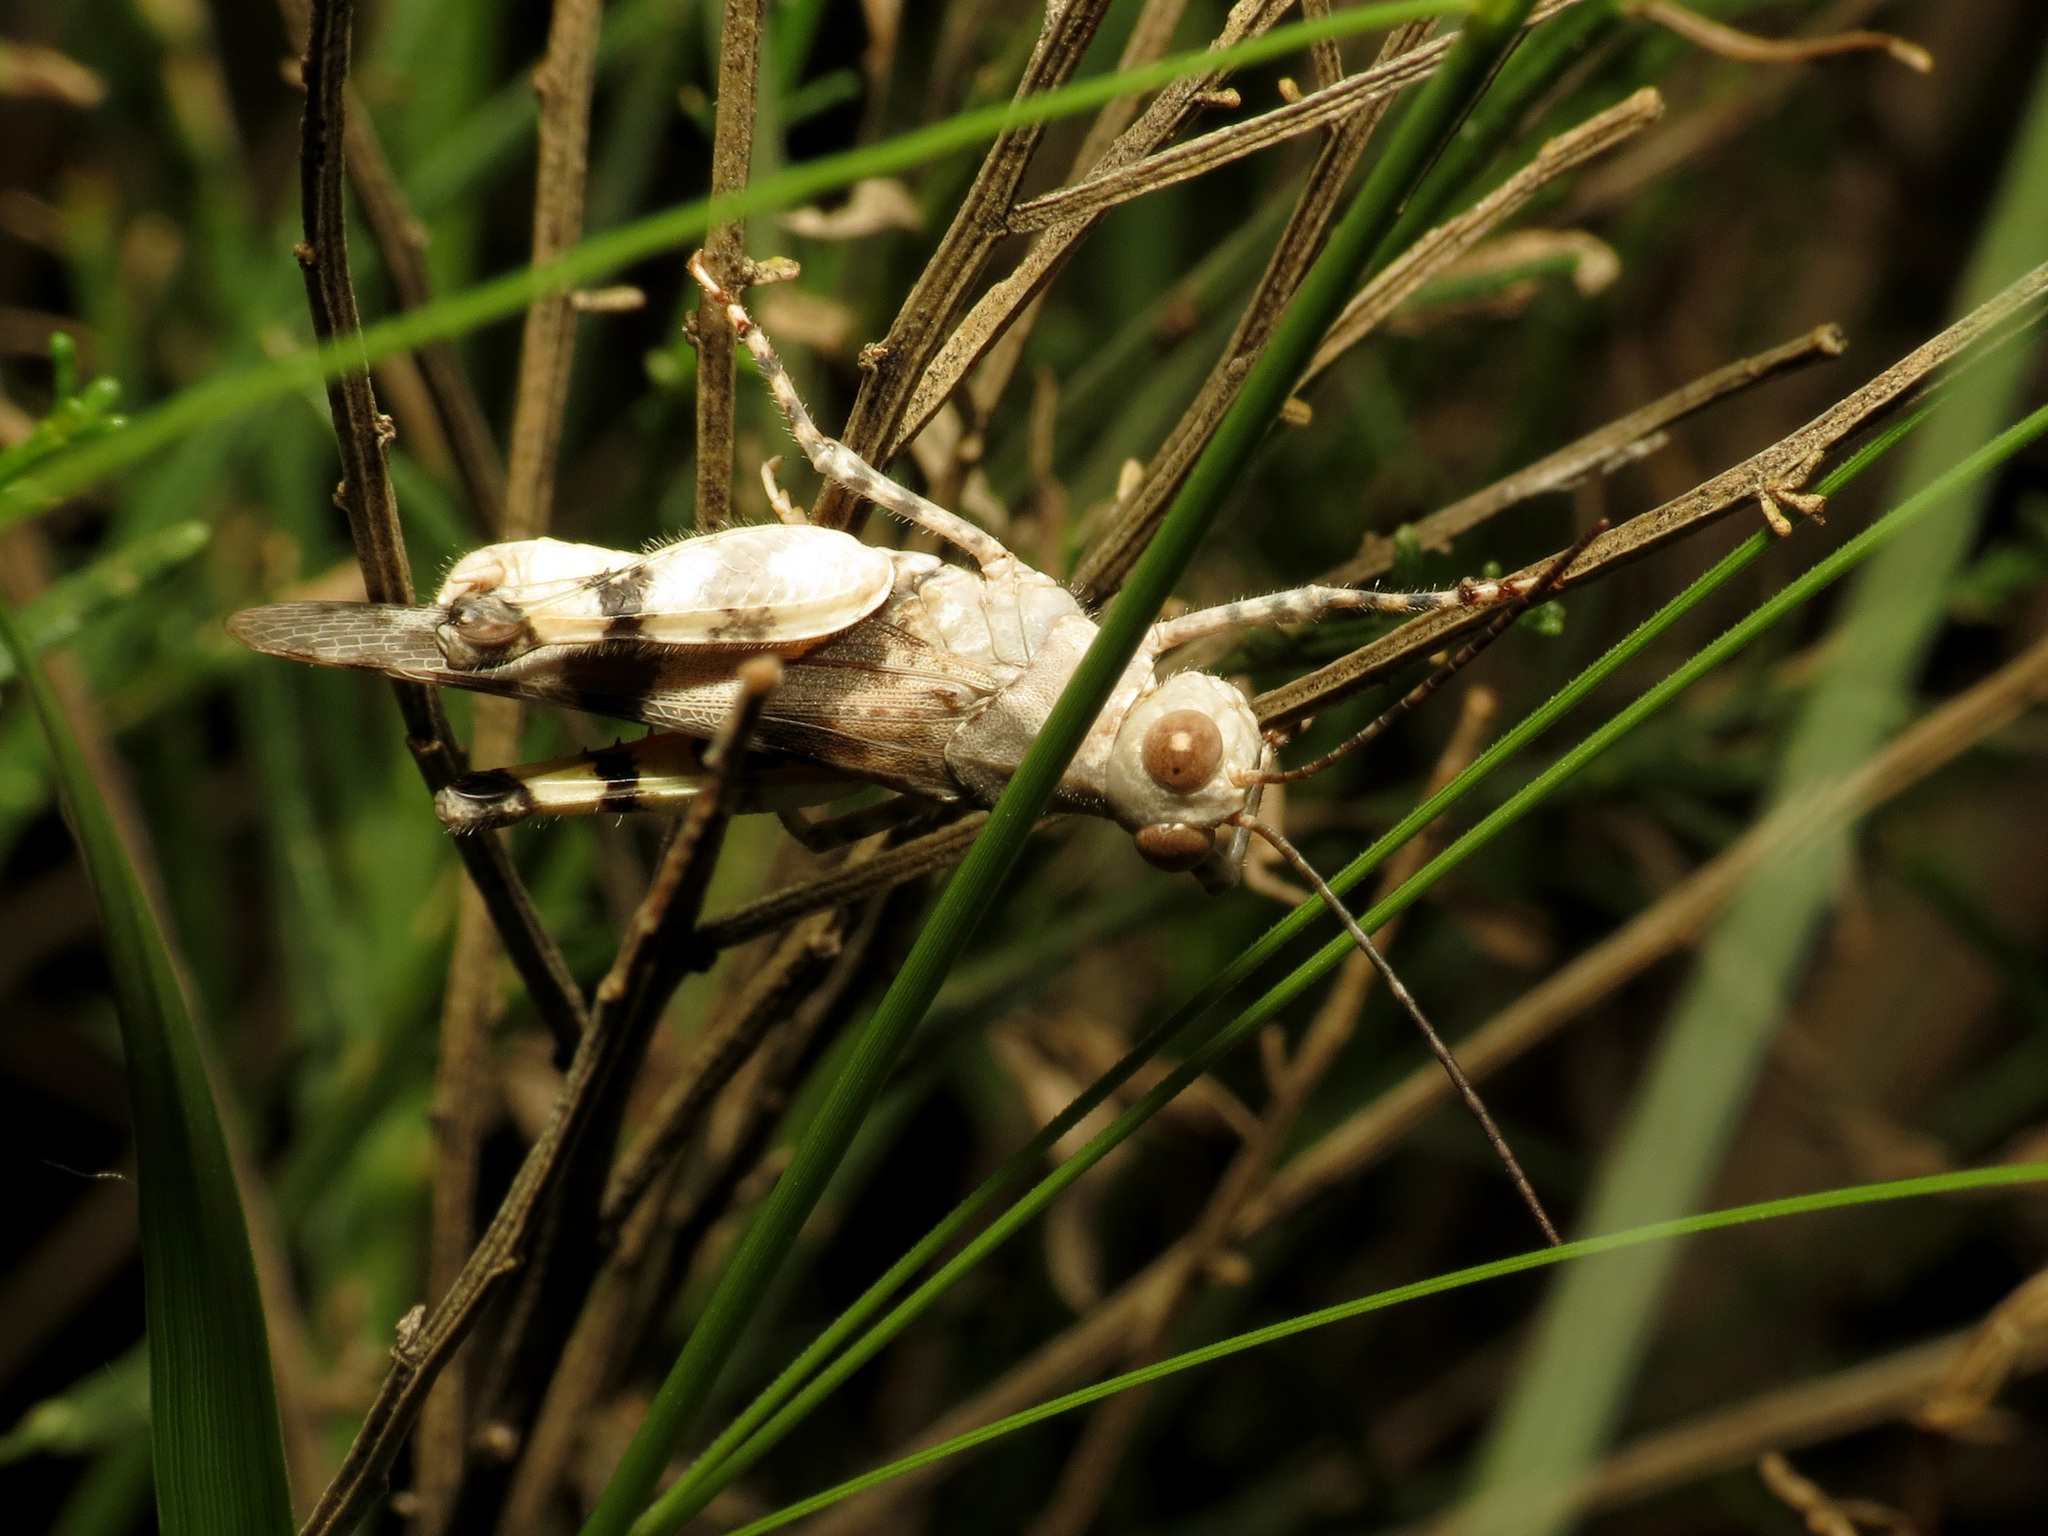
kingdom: Animalia
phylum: Arthropoda
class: Insecta
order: Orthoptera
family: Acrididae
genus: Heliastus
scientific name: Heliastus benjamini
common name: Arroyo grasshopper
